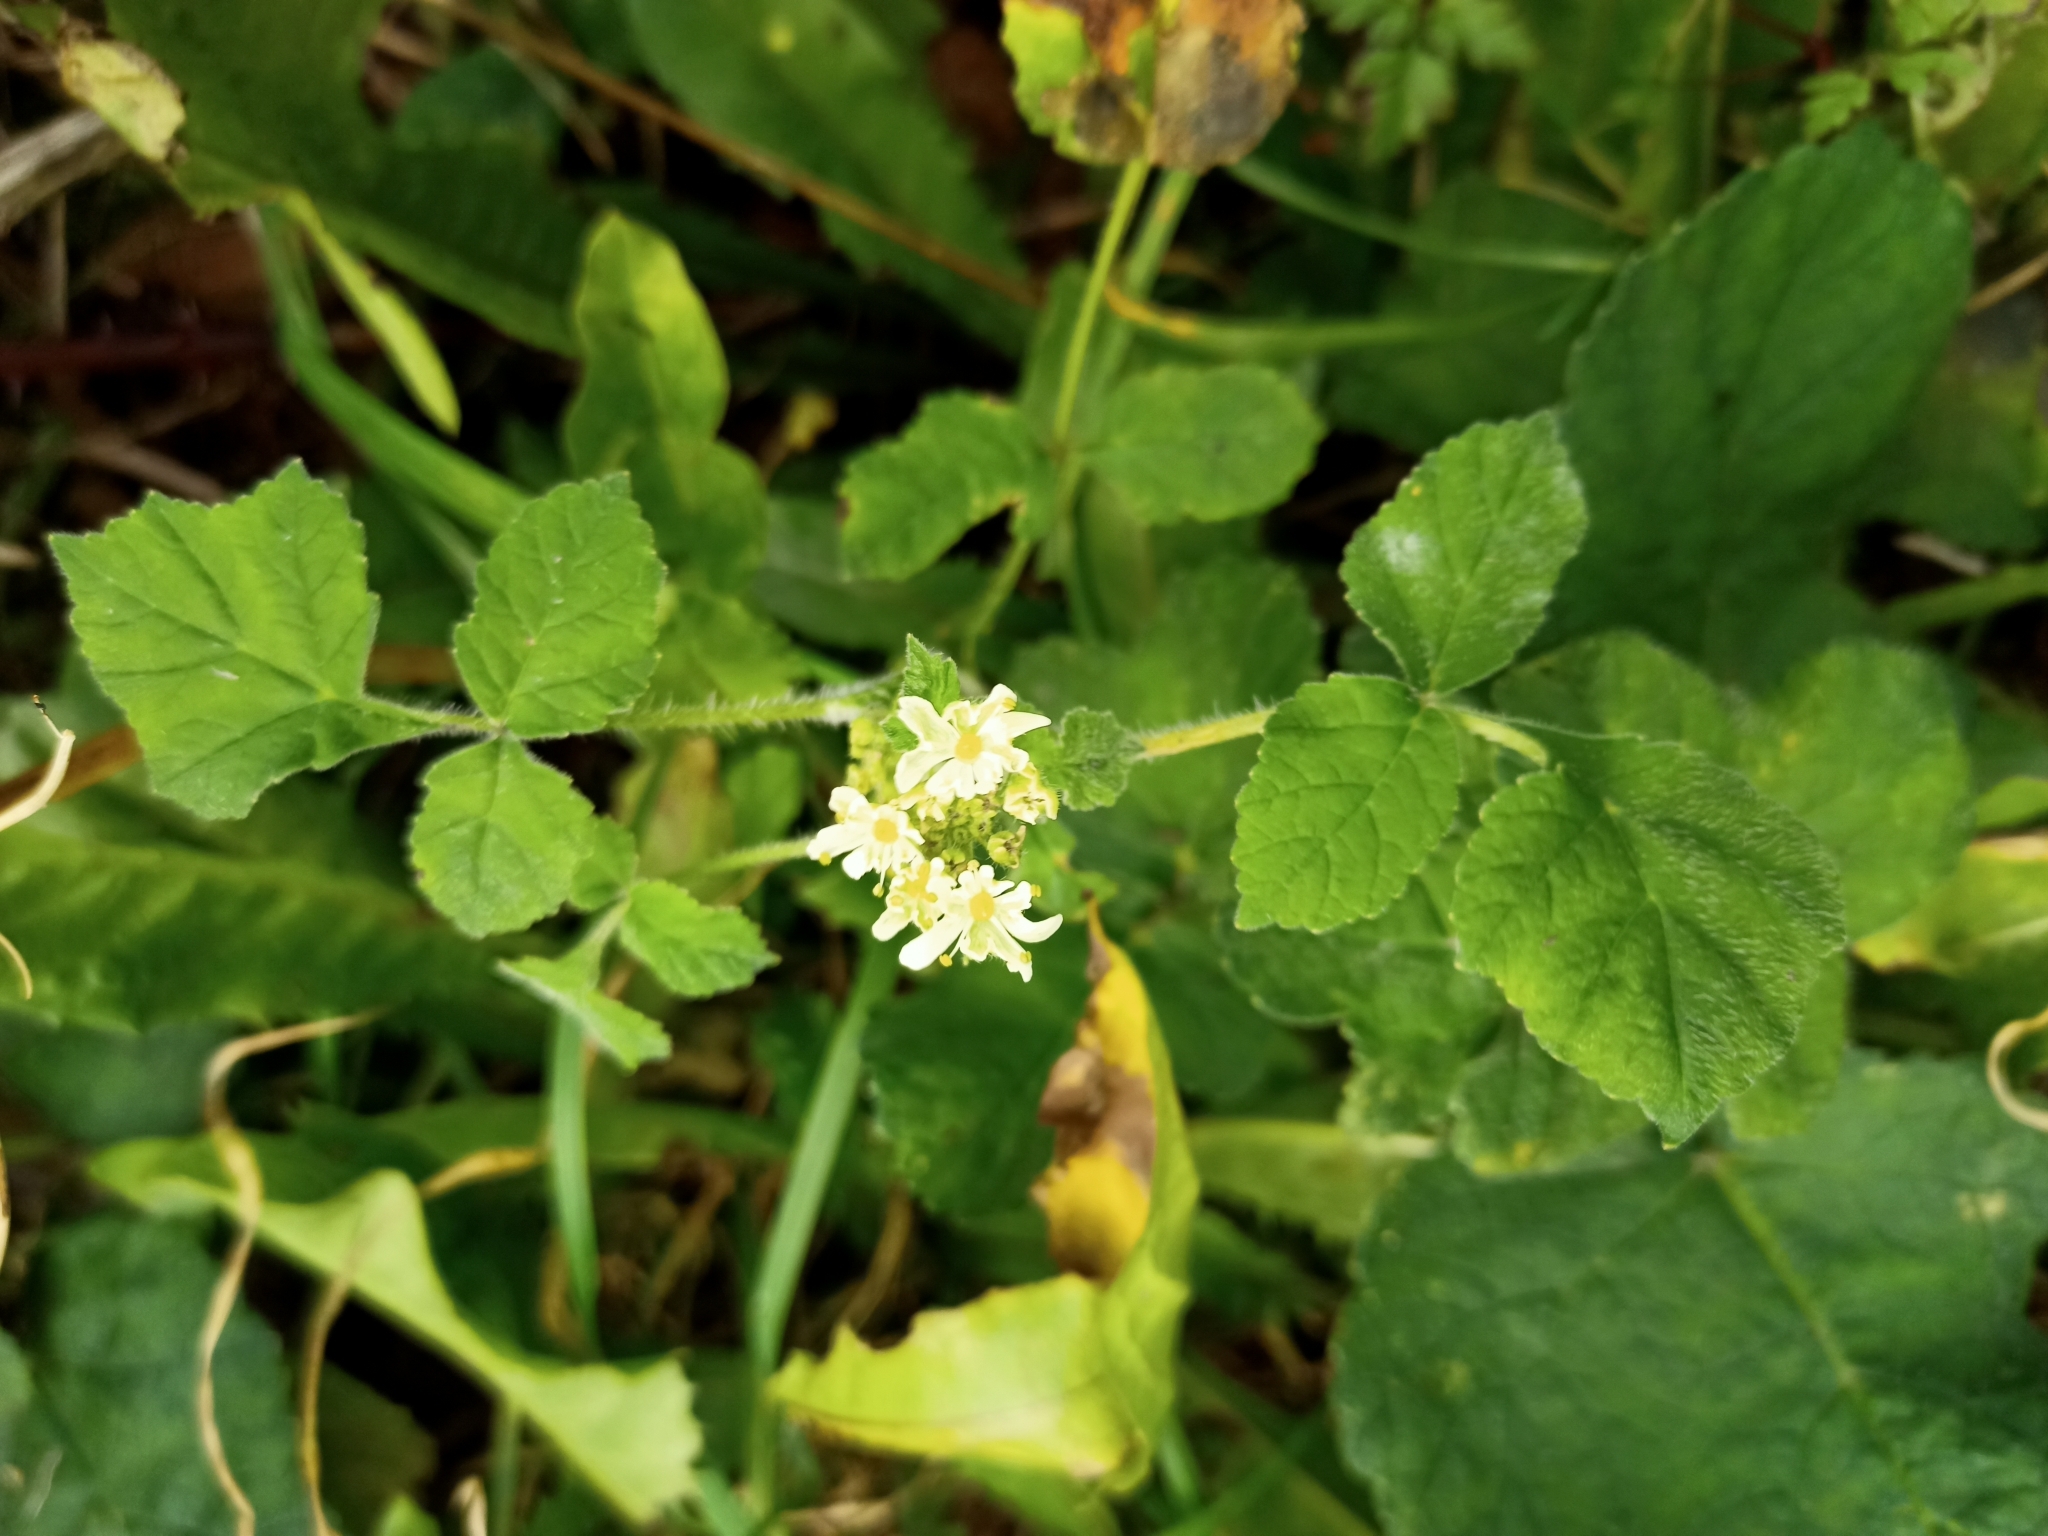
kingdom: Plantae
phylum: Tracheophyta
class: Magnoliopsida
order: Apiales
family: Apiaceae
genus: Heracleum
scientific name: Heracleum sphondylium
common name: Hogweed
